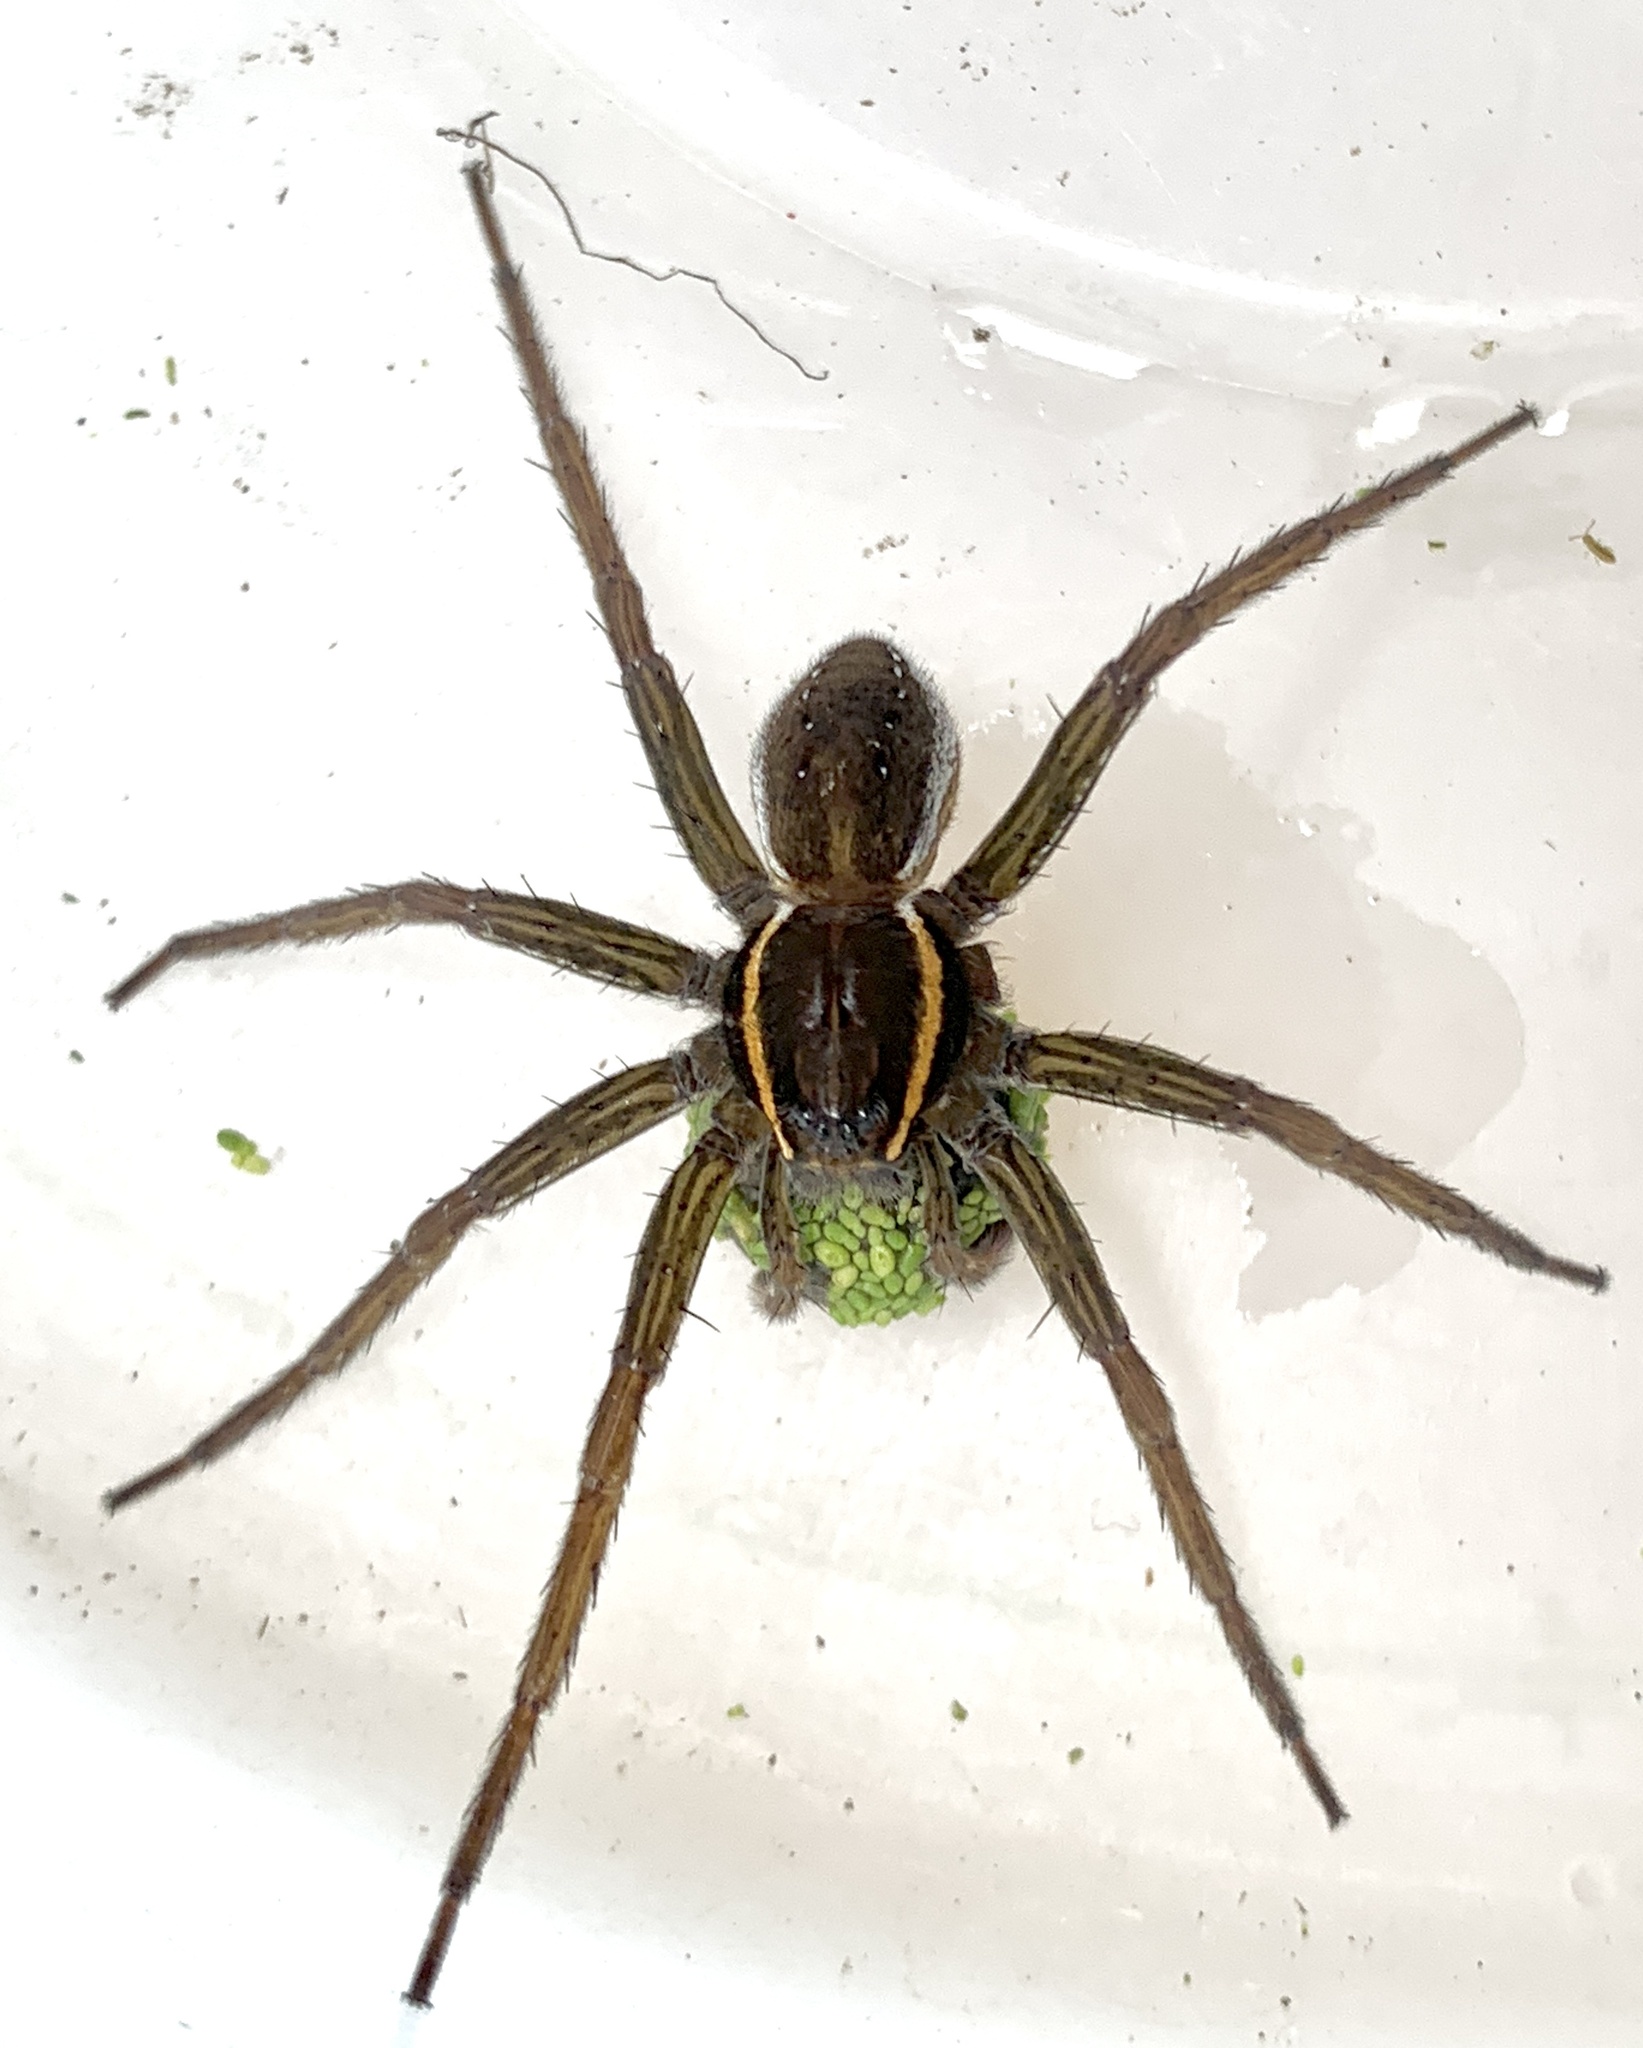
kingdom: Animalia
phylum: Arthropoda
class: Arachnida
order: Araneae
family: Pisauridae
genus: Dolomedes
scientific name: Dolomedes triton
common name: Six-spotted fishing spider
